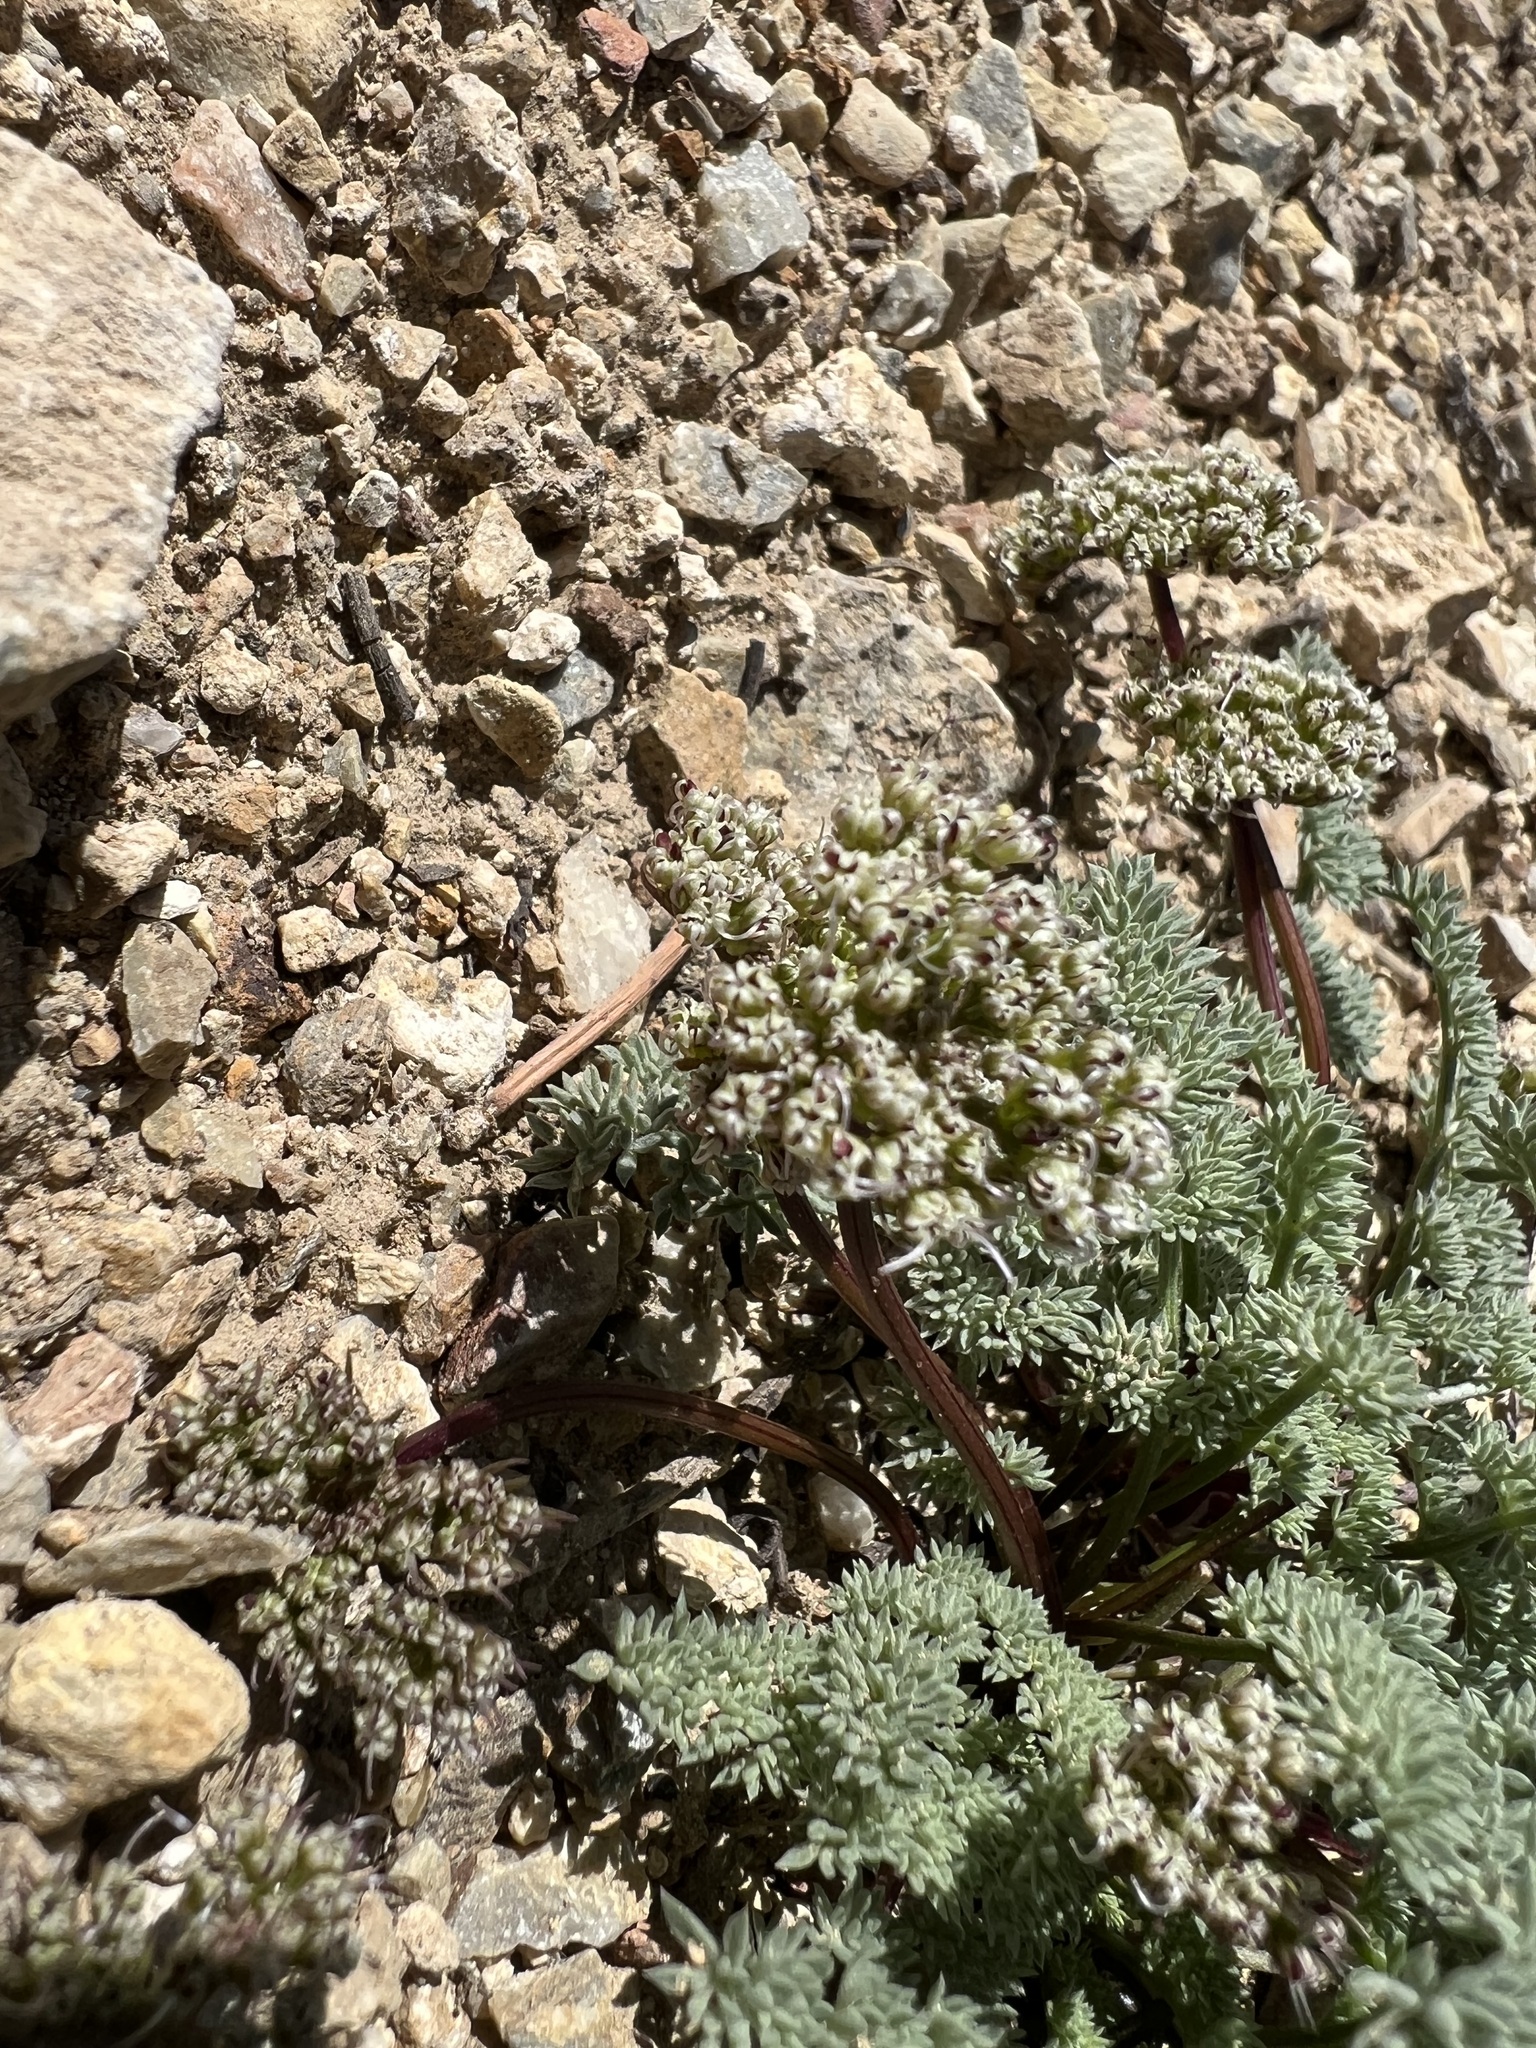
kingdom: Plantae
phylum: Tracheophyta
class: Magnoliopsida
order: Apiales
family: Apiaceae
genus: Aulospermum
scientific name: Aulospermum aboriginum
